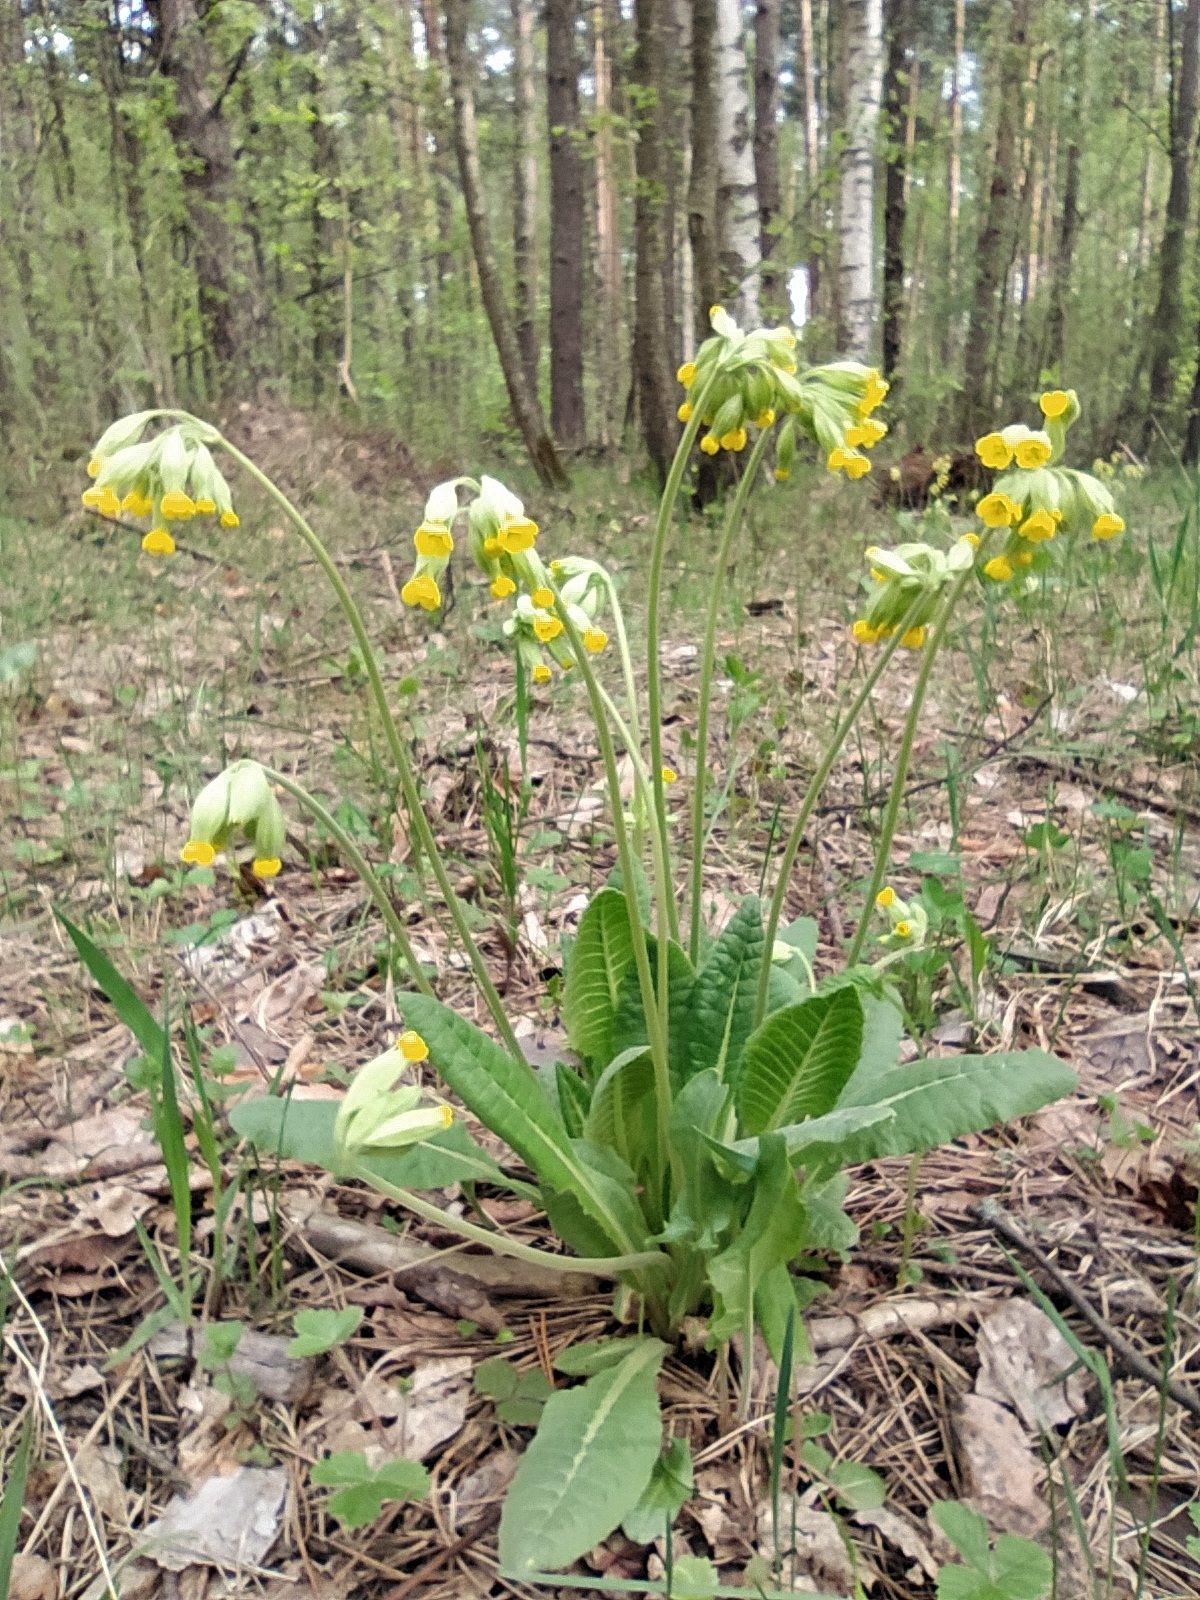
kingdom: Plantae
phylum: Tracheophyta
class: Magnoliopsida
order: Ericales
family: Primulaceae
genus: Primula
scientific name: Primula veris
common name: Cowslip
